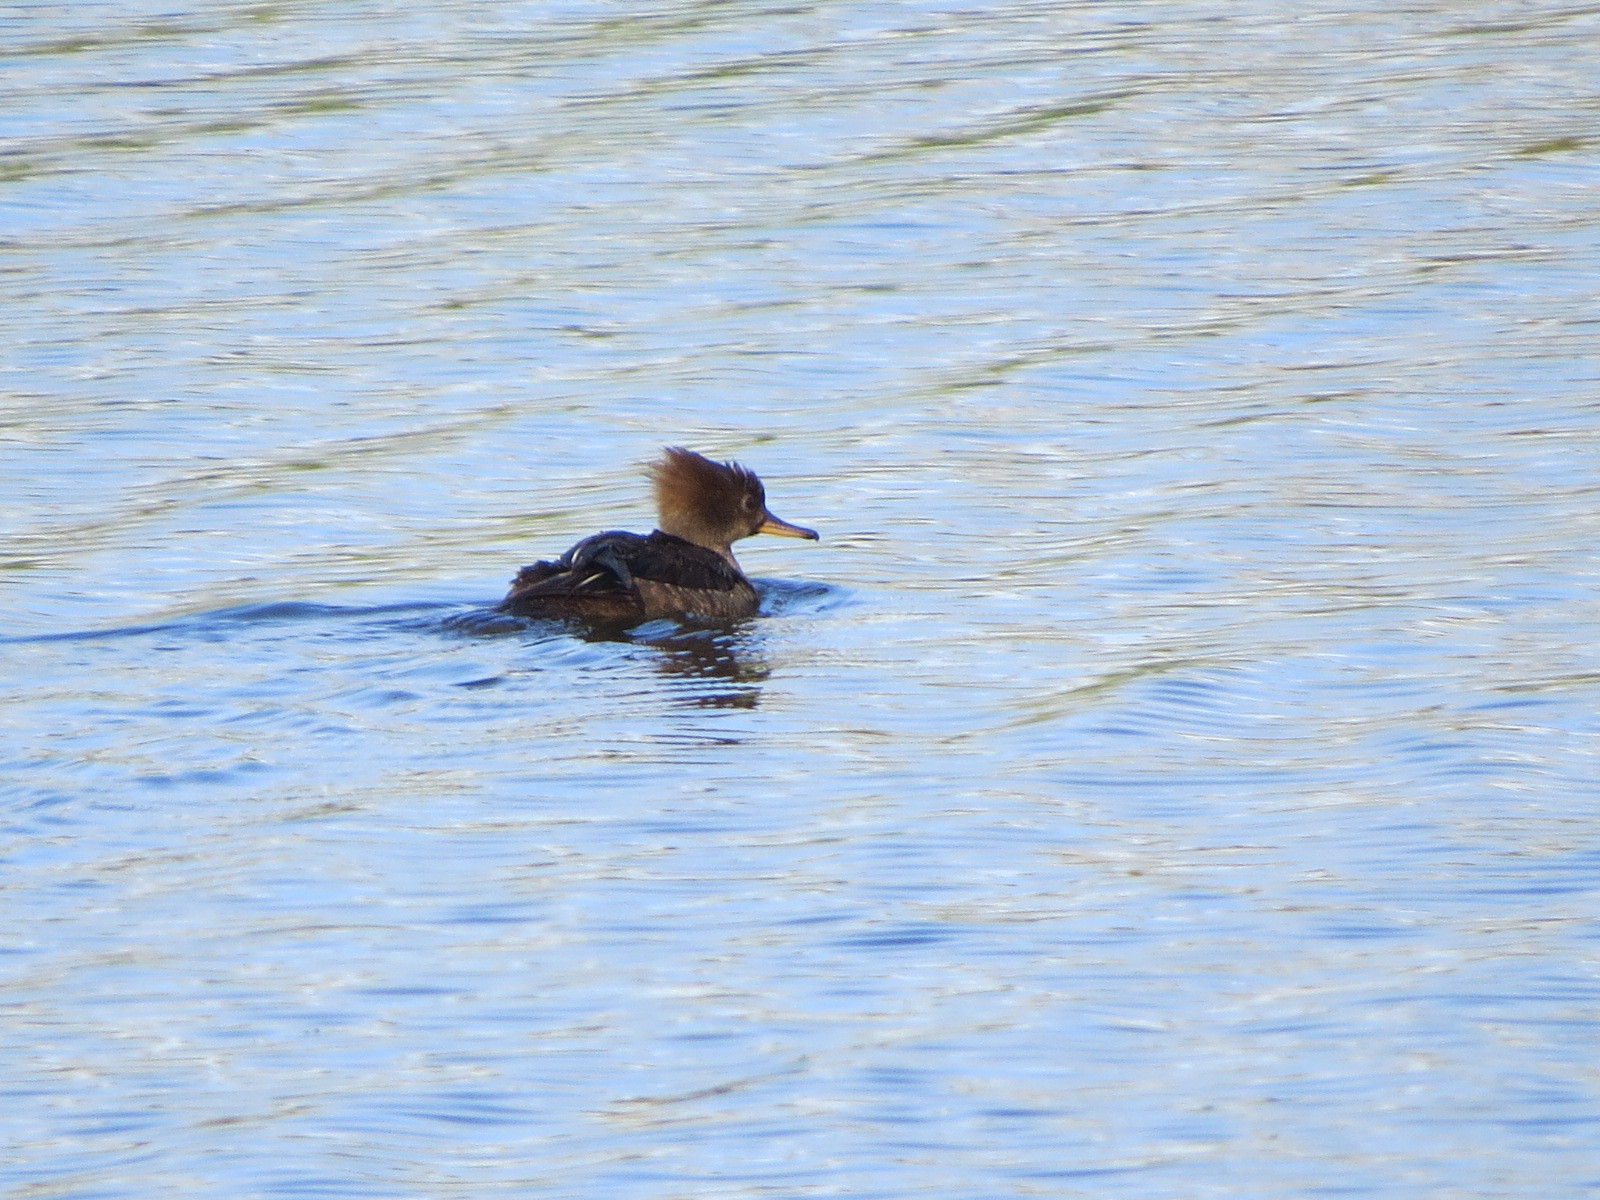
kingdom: Animalia
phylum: Chordata
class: Aves
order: Anseriformes
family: Anatidae
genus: Lophodytes
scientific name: Lophodytes cucullatus
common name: Hooded merganser
